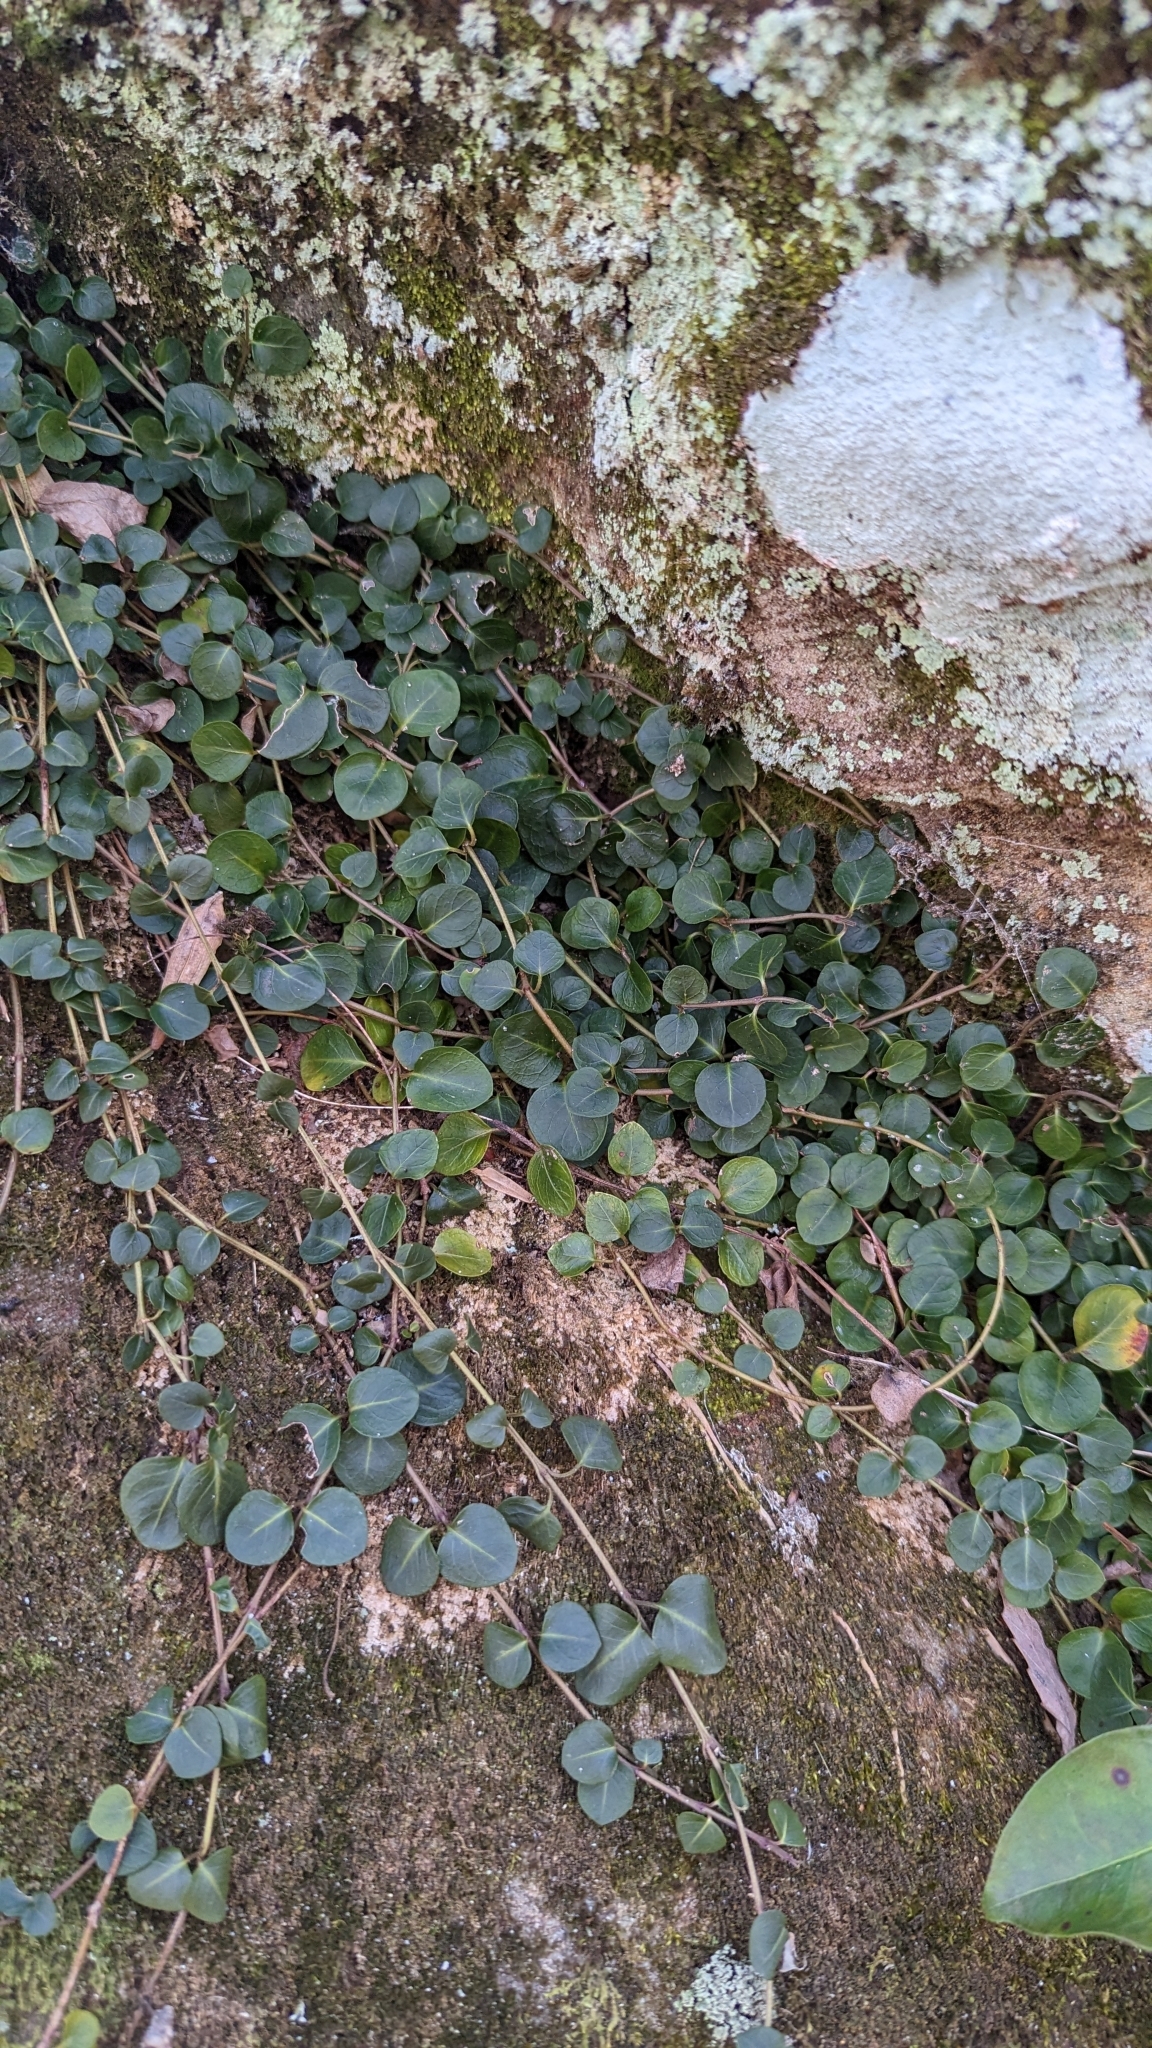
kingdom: Plantae
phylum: Tracheophyta
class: Magnoliopsida
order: Gentianales
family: Rubiaceae
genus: Mitchella
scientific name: Mitchella repens
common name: Partridge-berry
